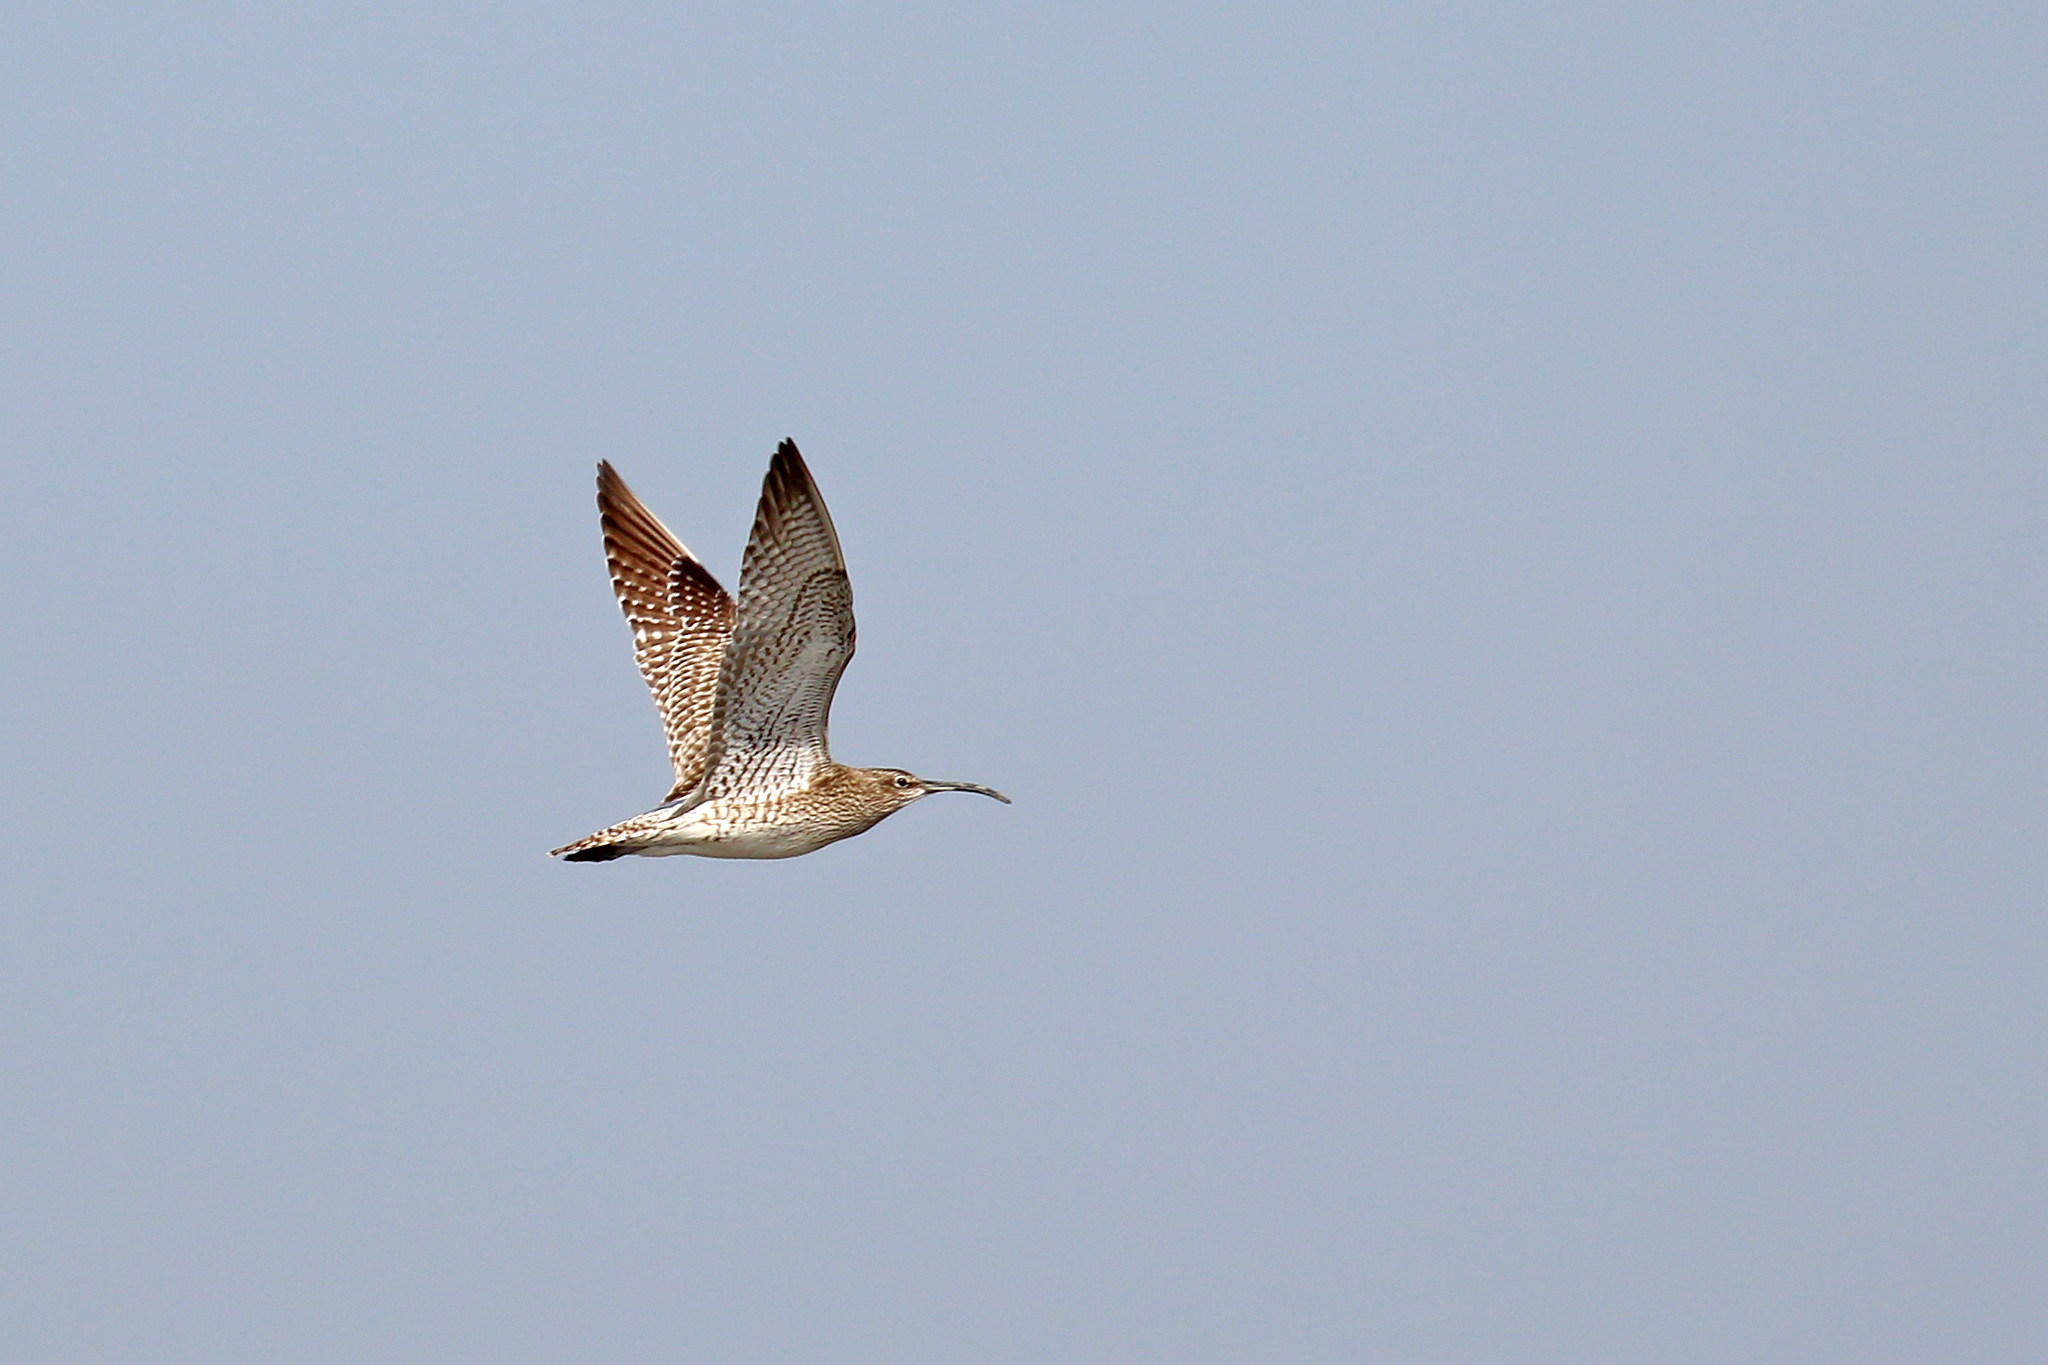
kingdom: Animalia
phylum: Chordata
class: Aves
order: Charadriiformes
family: Scolopacidae
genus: Numenius
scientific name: Numenius phaeopus
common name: Whimbrel
